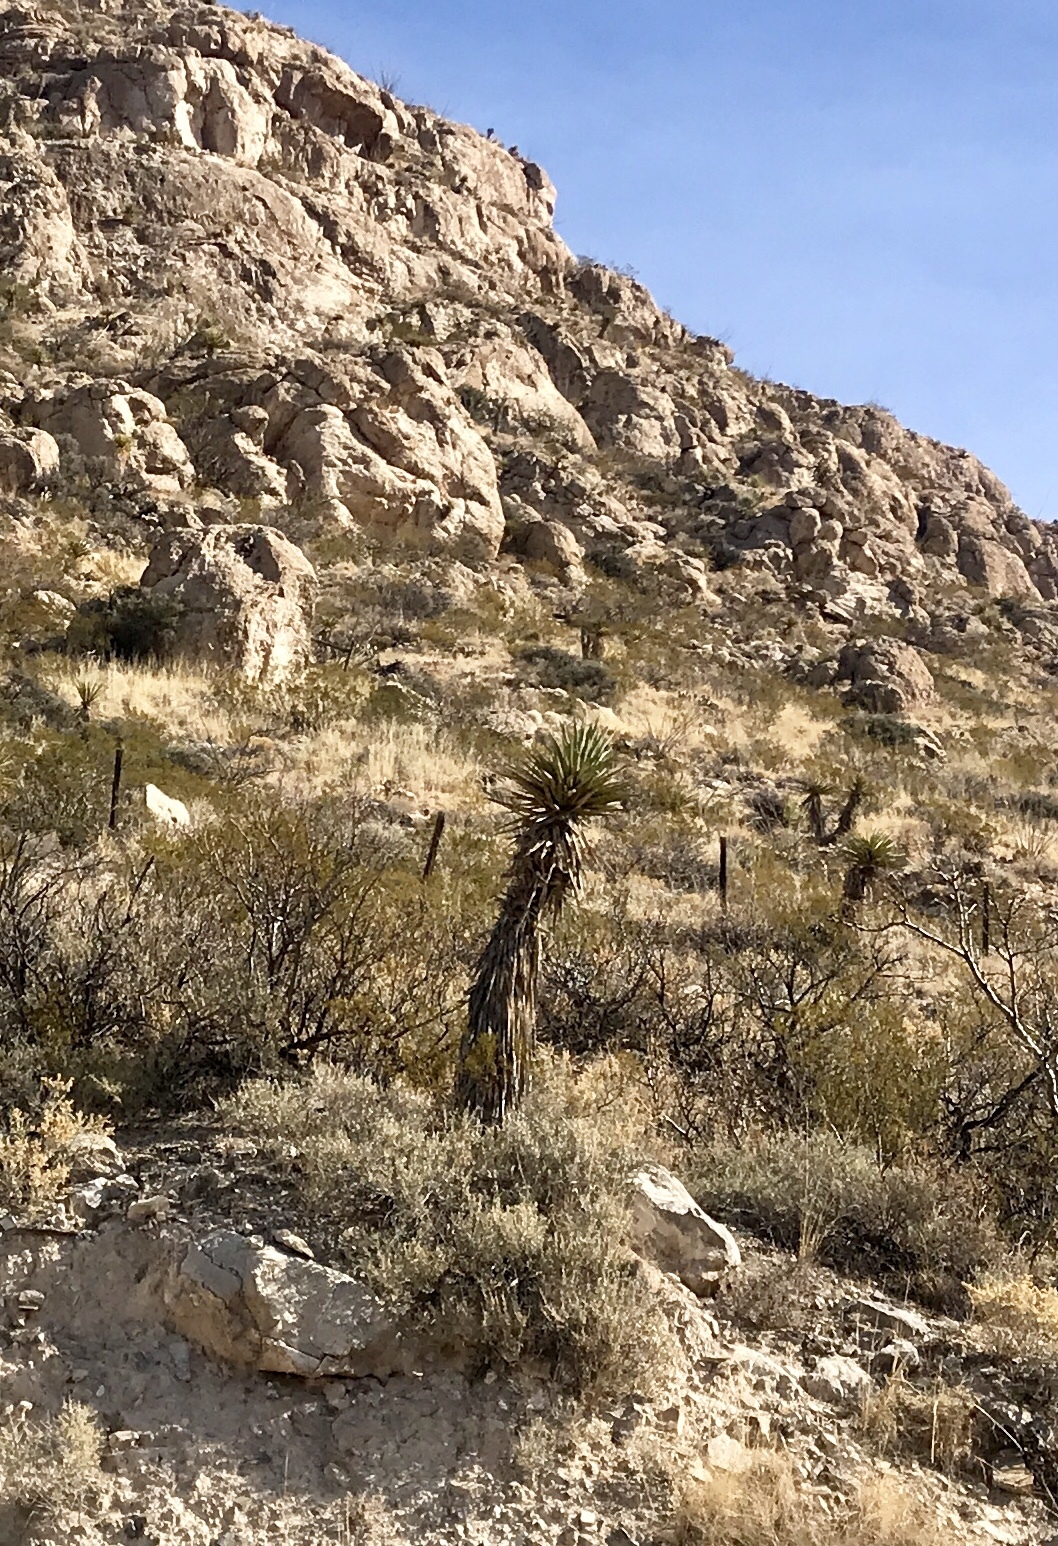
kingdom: Plantae
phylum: Tracheophyta
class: Liliopsida
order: Asparagales
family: Asparagaceae
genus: Yucca
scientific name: Yucca treculiana
